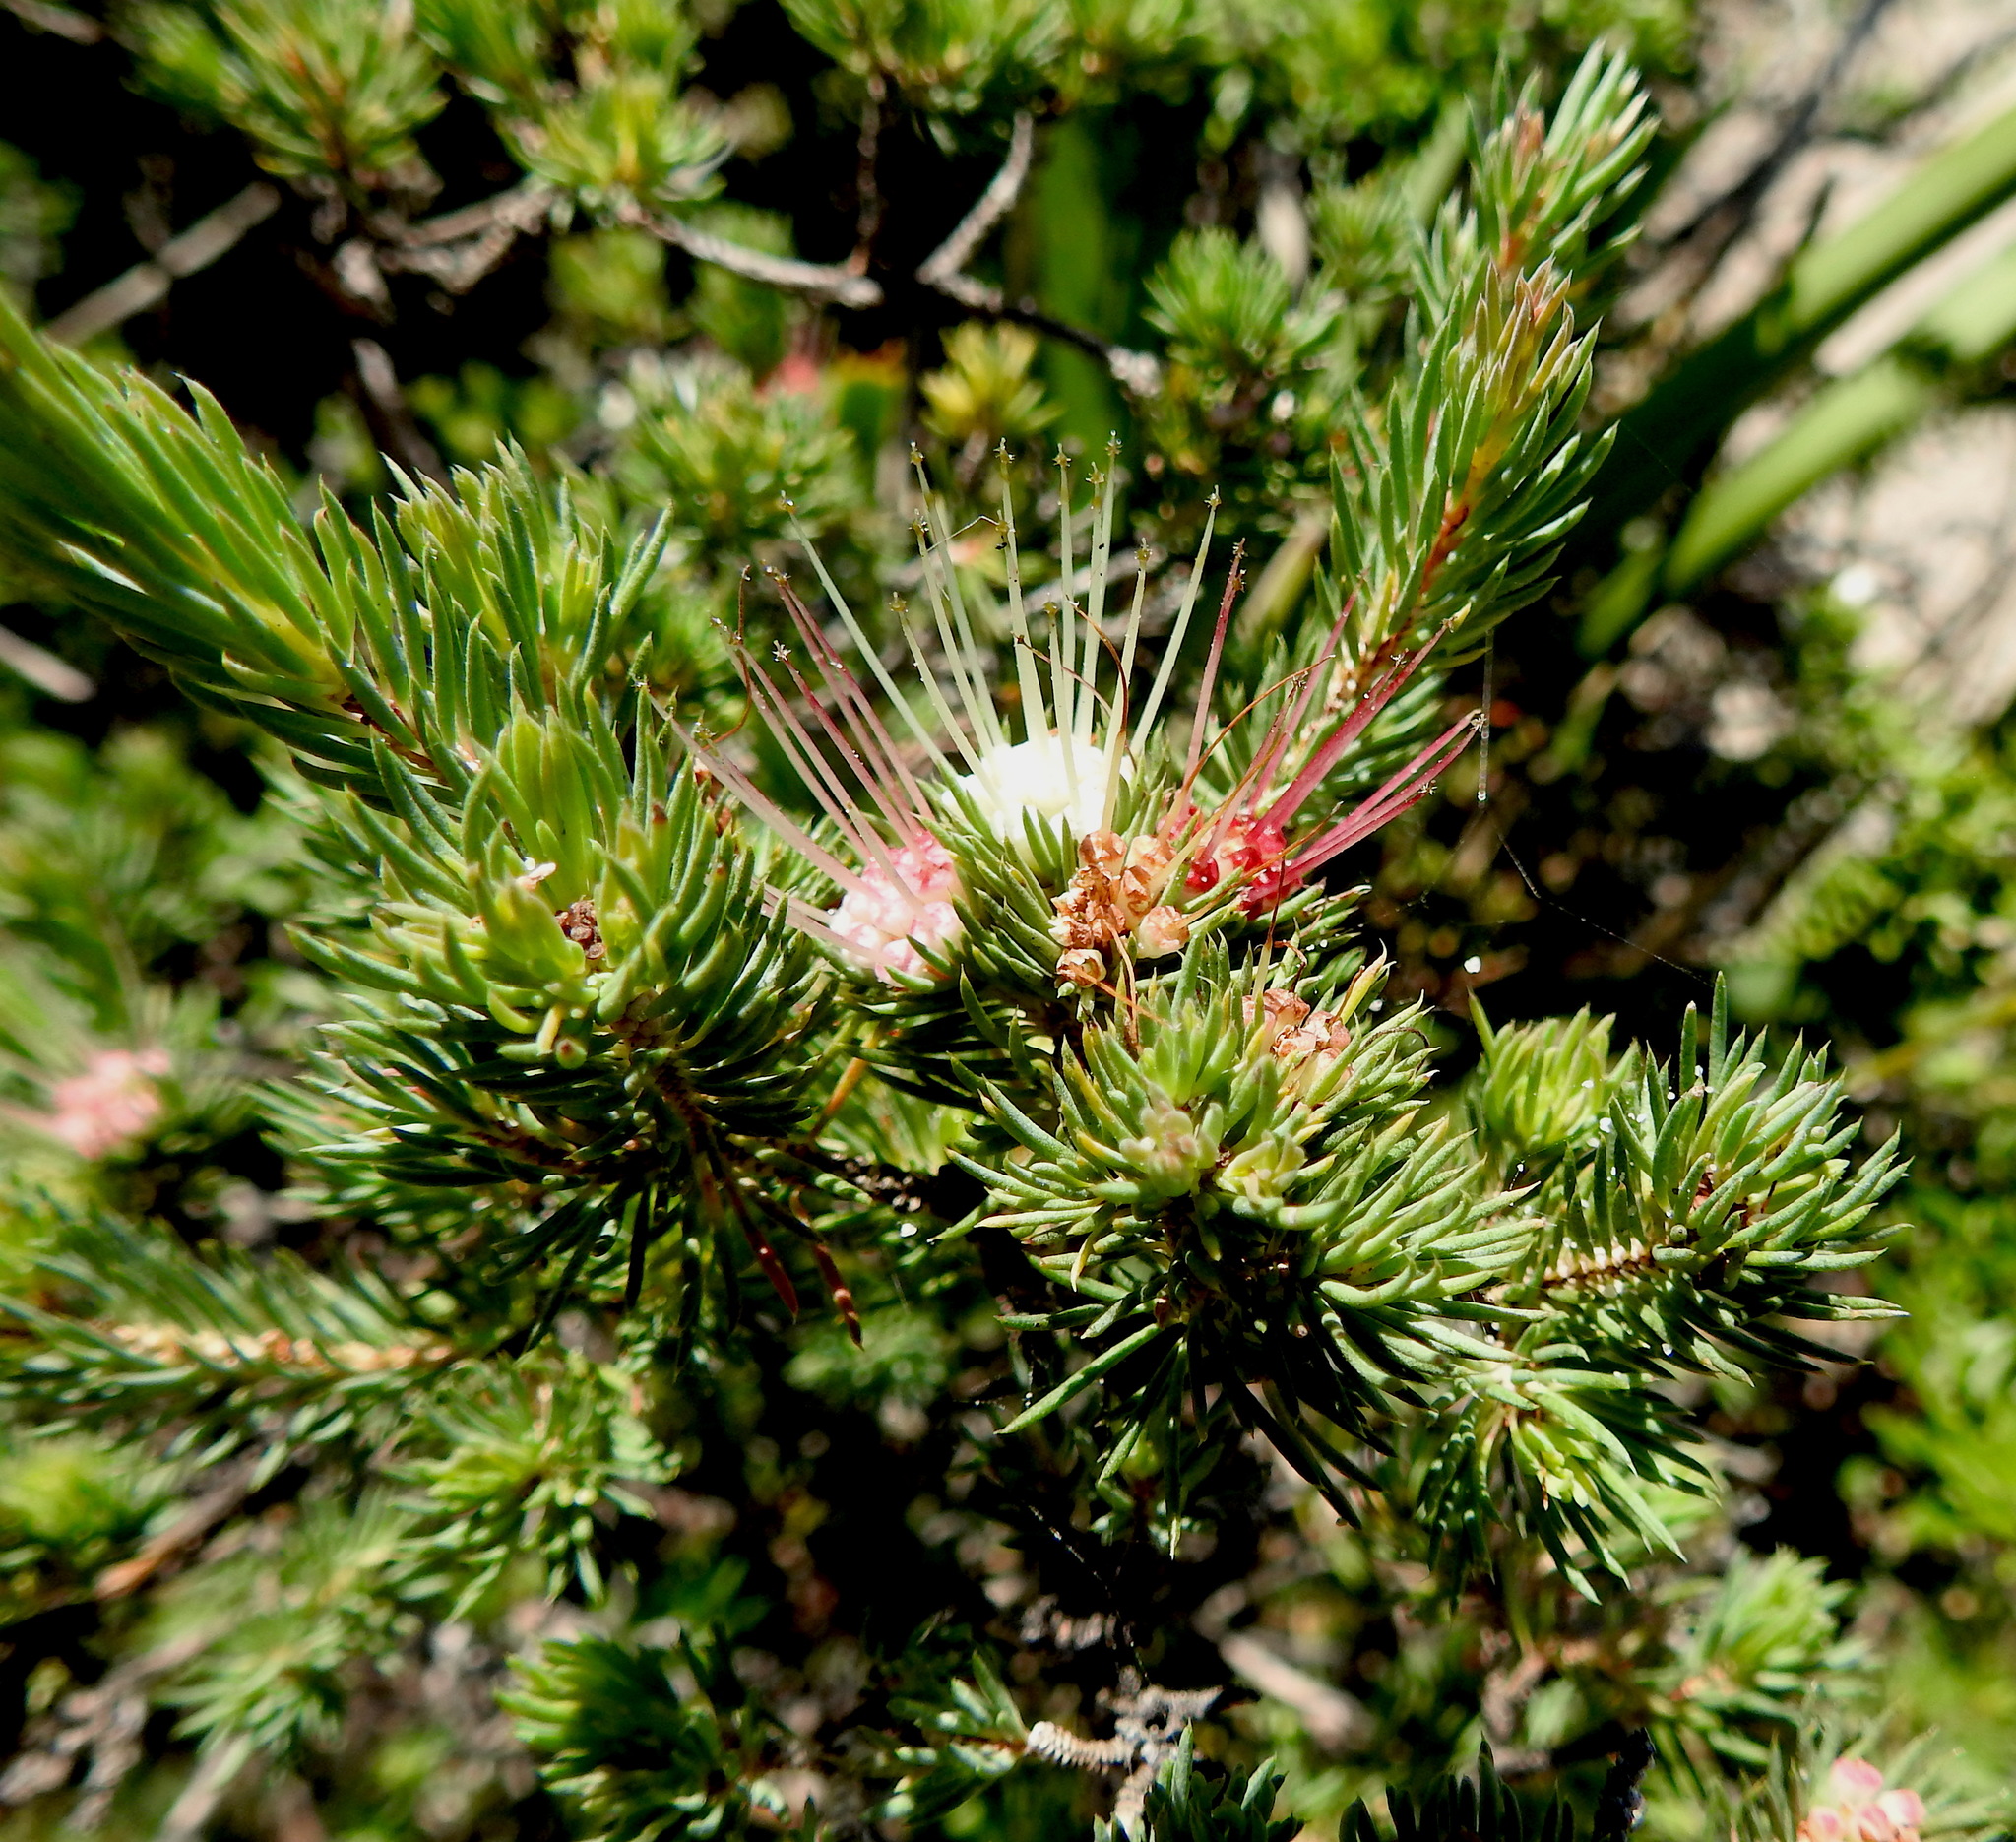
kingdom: Plantae
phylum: Tracheophyta
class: Magnoliopsida
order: Myrtales
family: Myrtaceae
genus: Darwinia
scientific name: Darwinia fascicularis
